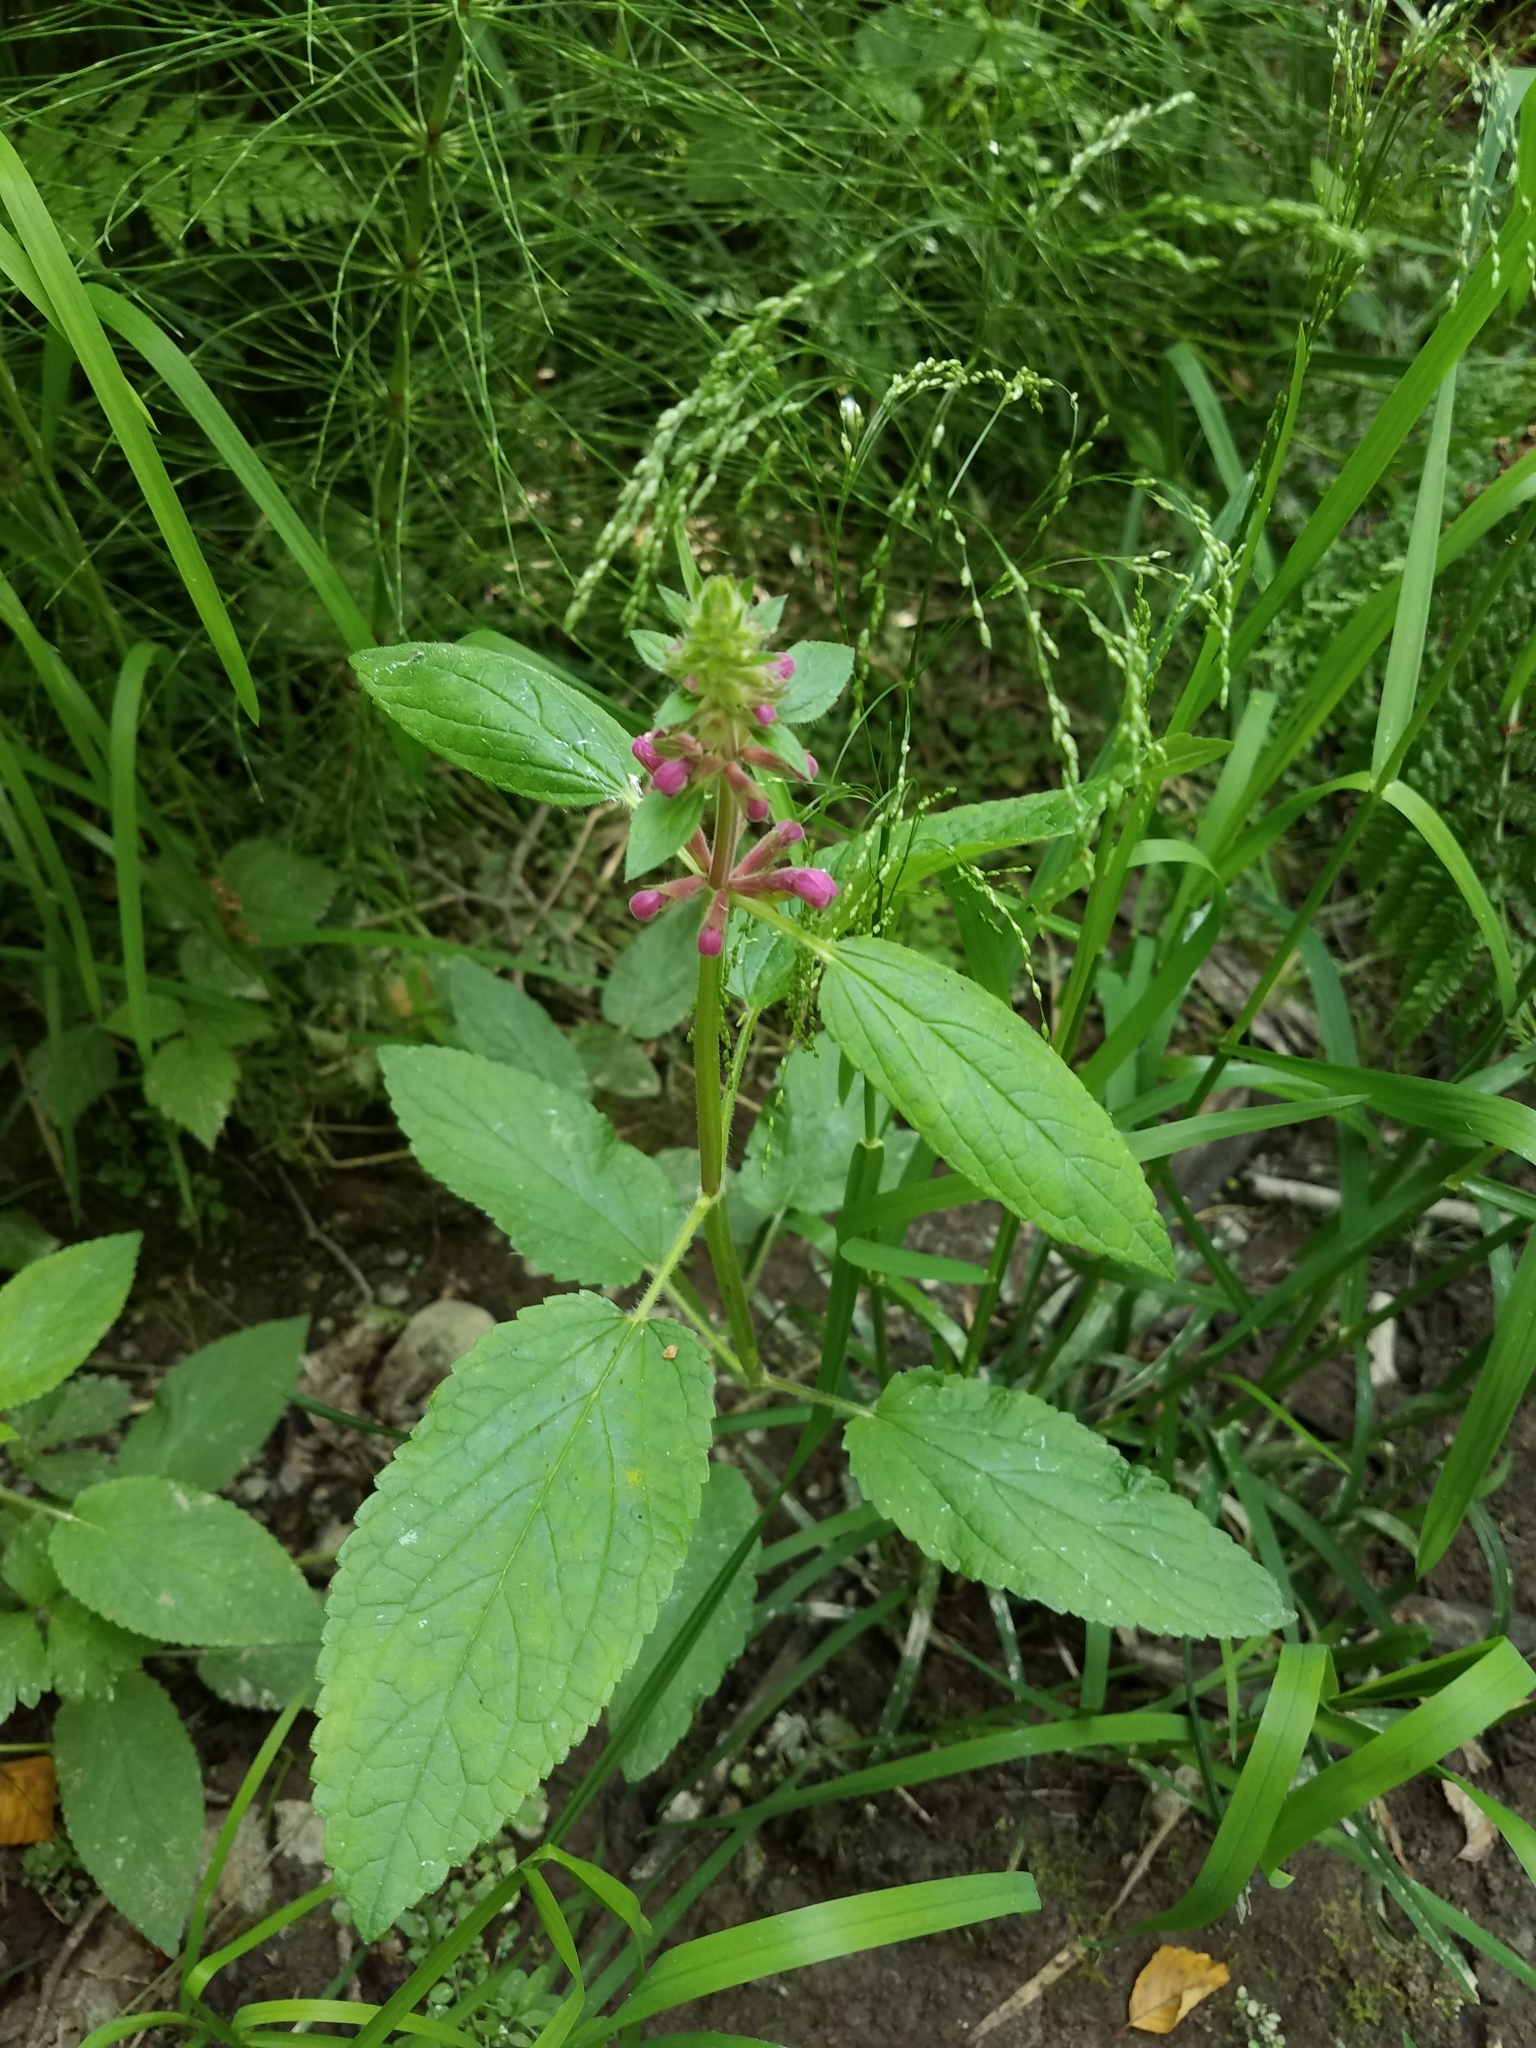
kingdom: Plantae
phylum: Tracheophyta
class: Magnoliopsida
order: Lamiales
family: Lamiaceae
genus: Stachys
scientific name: Stachys chamissonis
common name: Coastal hedge-nettle
